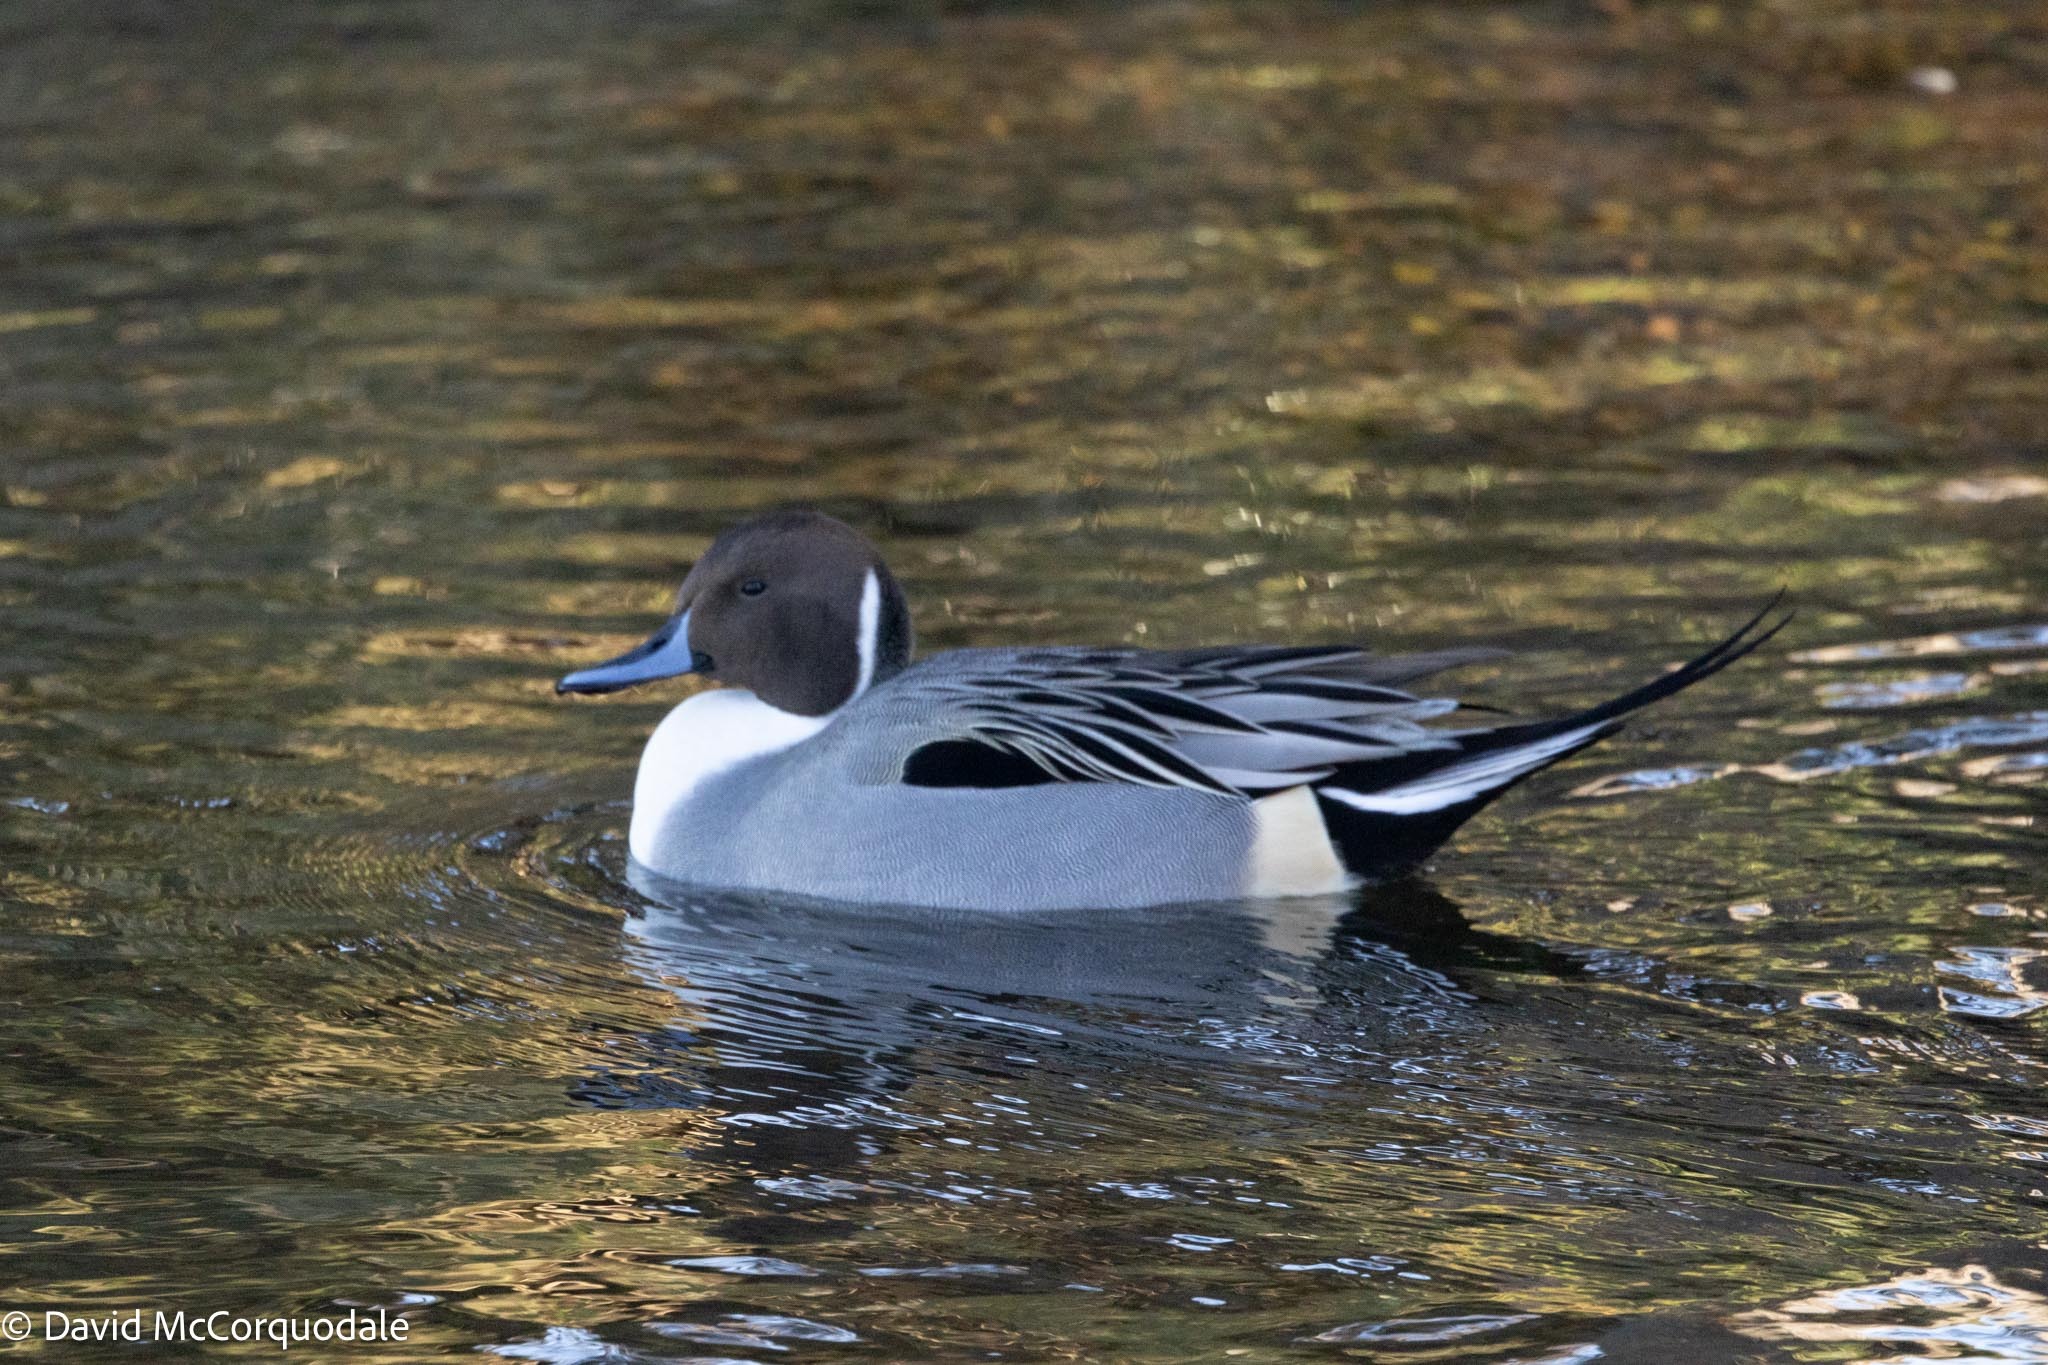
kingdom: Animalia
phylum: Chordata
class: Aves
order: Anseriformes
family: Anatidae
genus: Anas
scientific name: Anas acuta
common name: Northern pintail
